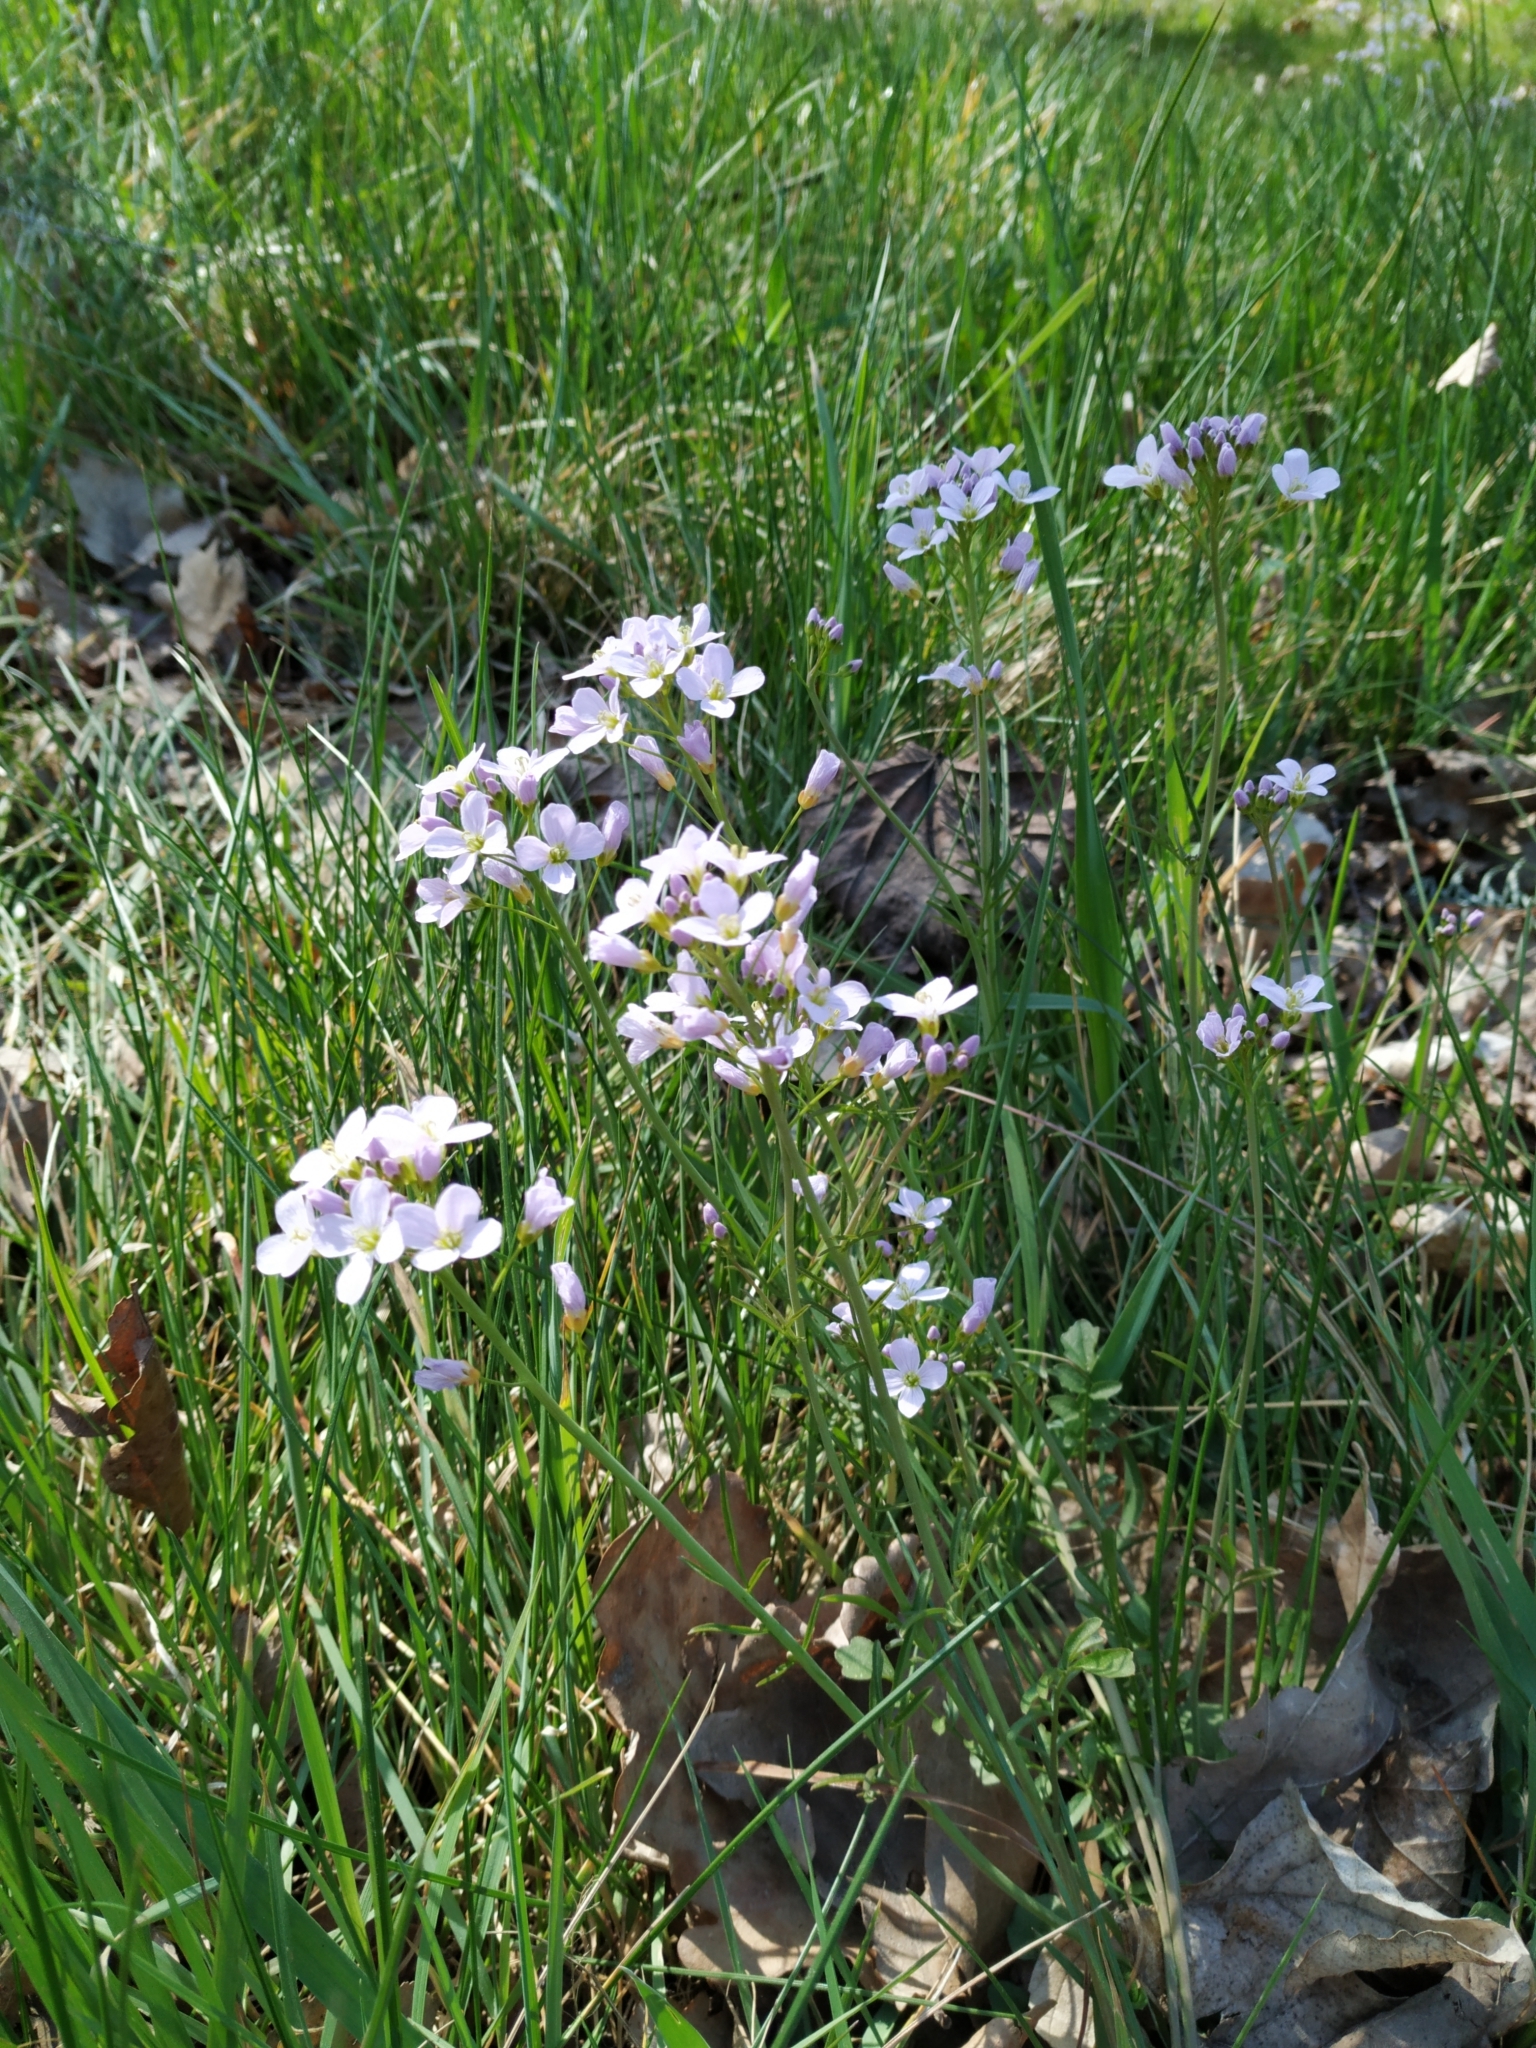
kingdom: Plantae
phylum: Tracheophyta
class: Magnoliopsida
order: Brassicales
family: Brassicaceae
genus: Cardamine
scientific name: Cardamine pratensis
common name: Cuckoo flower
